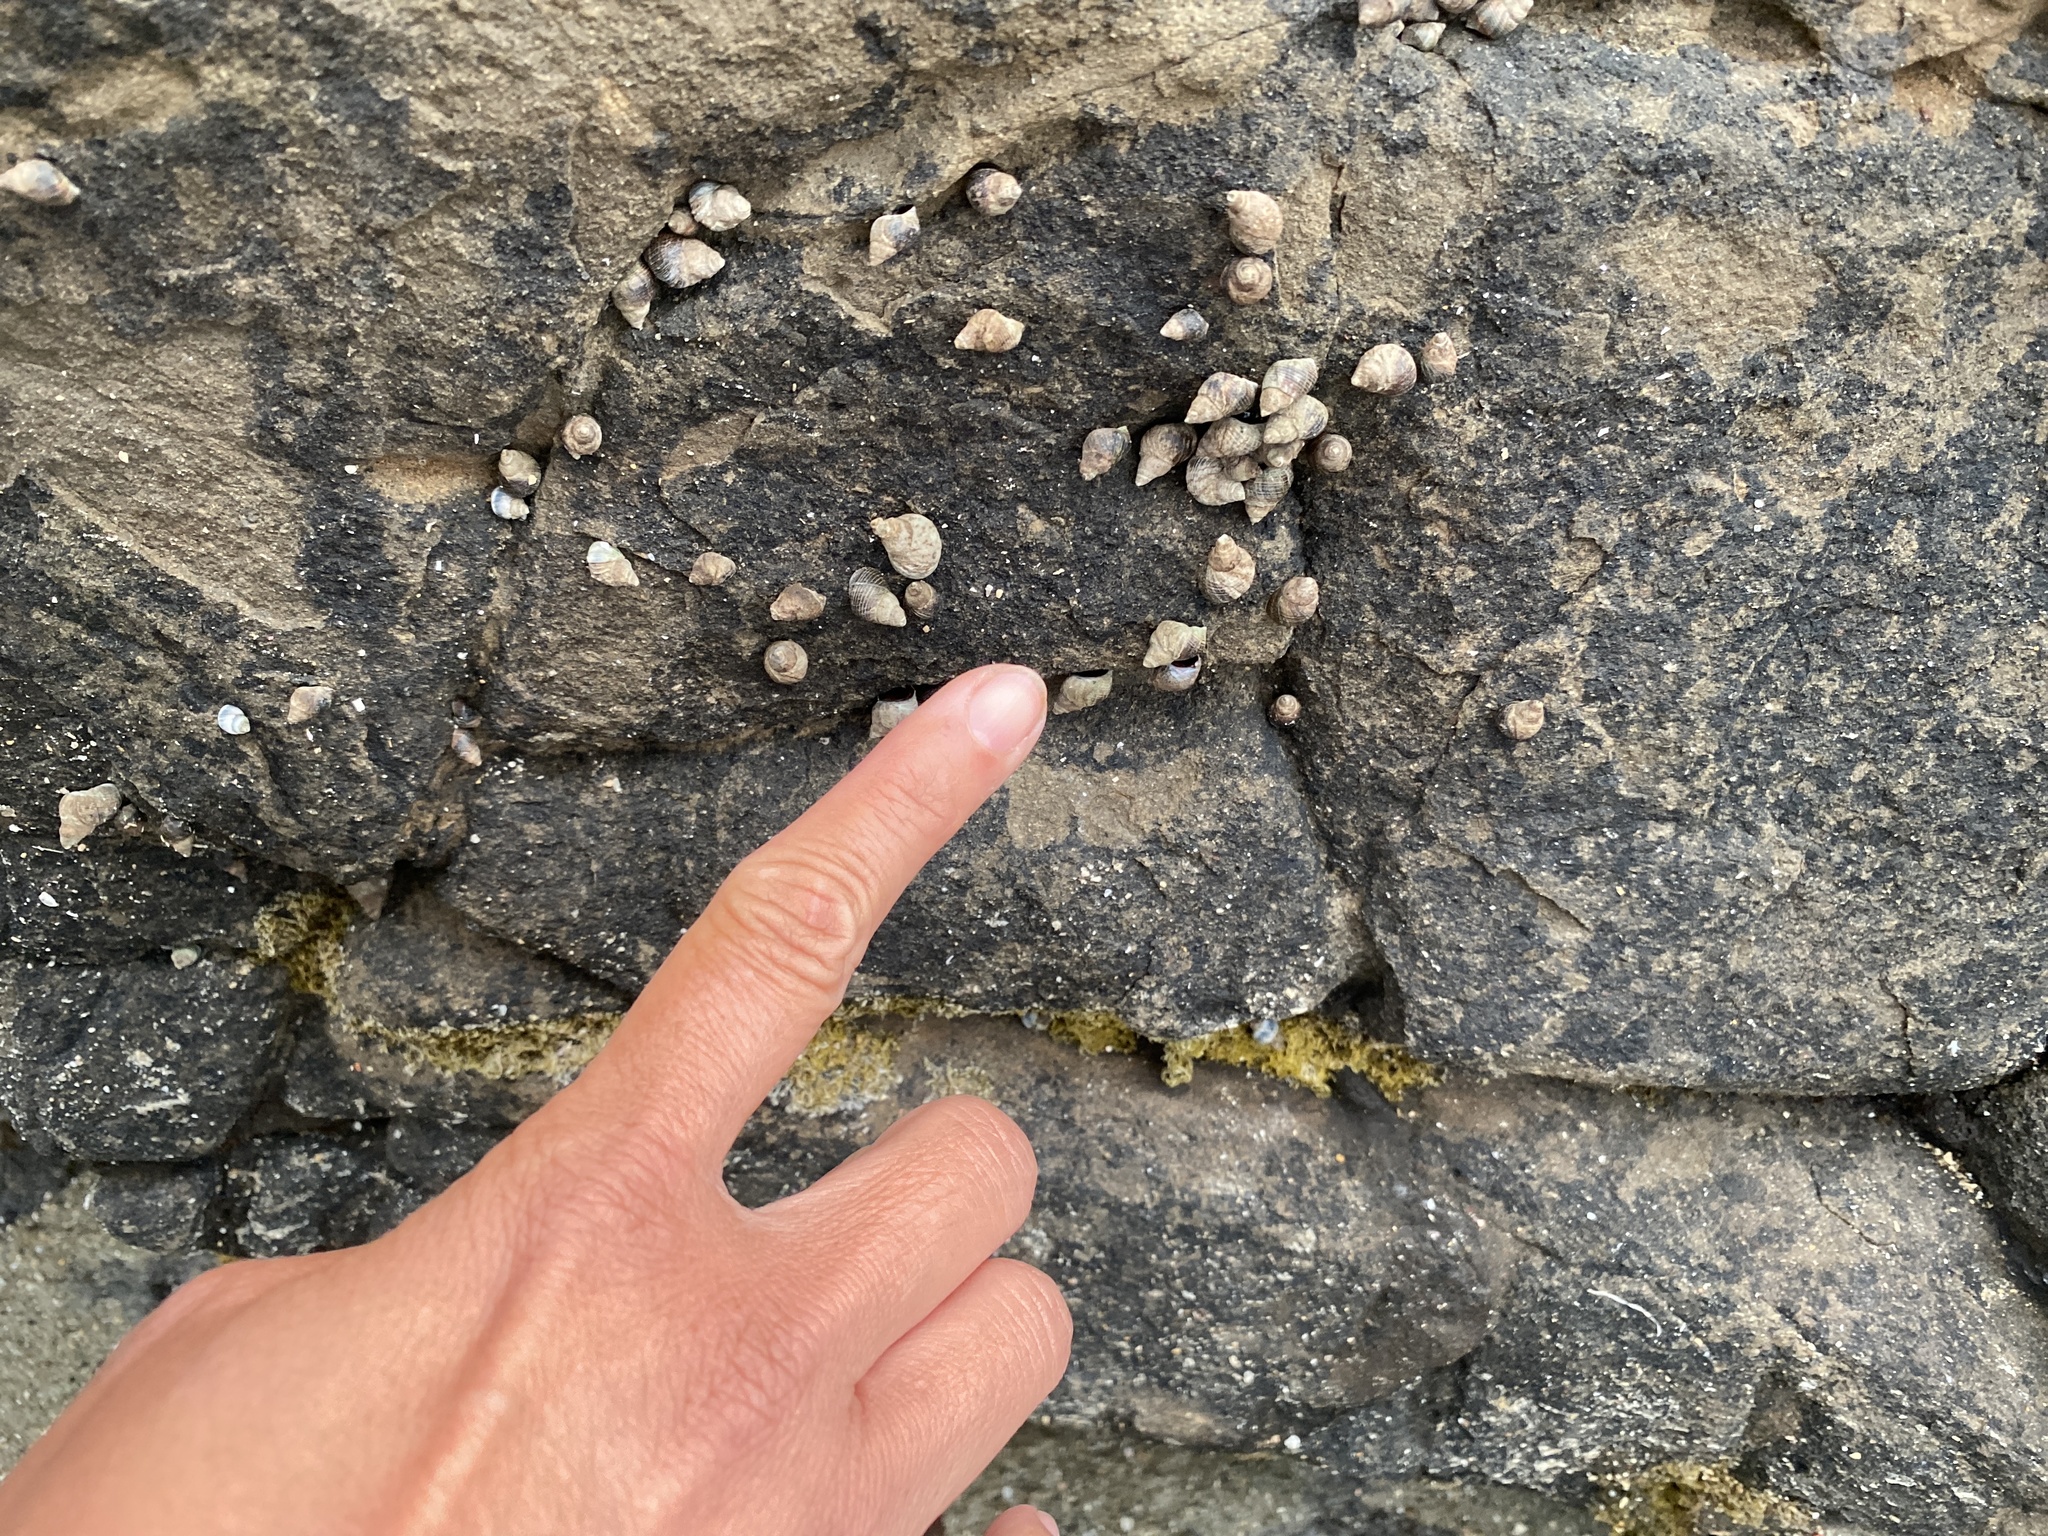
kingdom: Animalia
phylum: Mollusca
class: Gastropoda
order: Littorinimorpha
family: Littorinidae
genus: Austrolittorina
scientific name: Austrolittorina cincta
